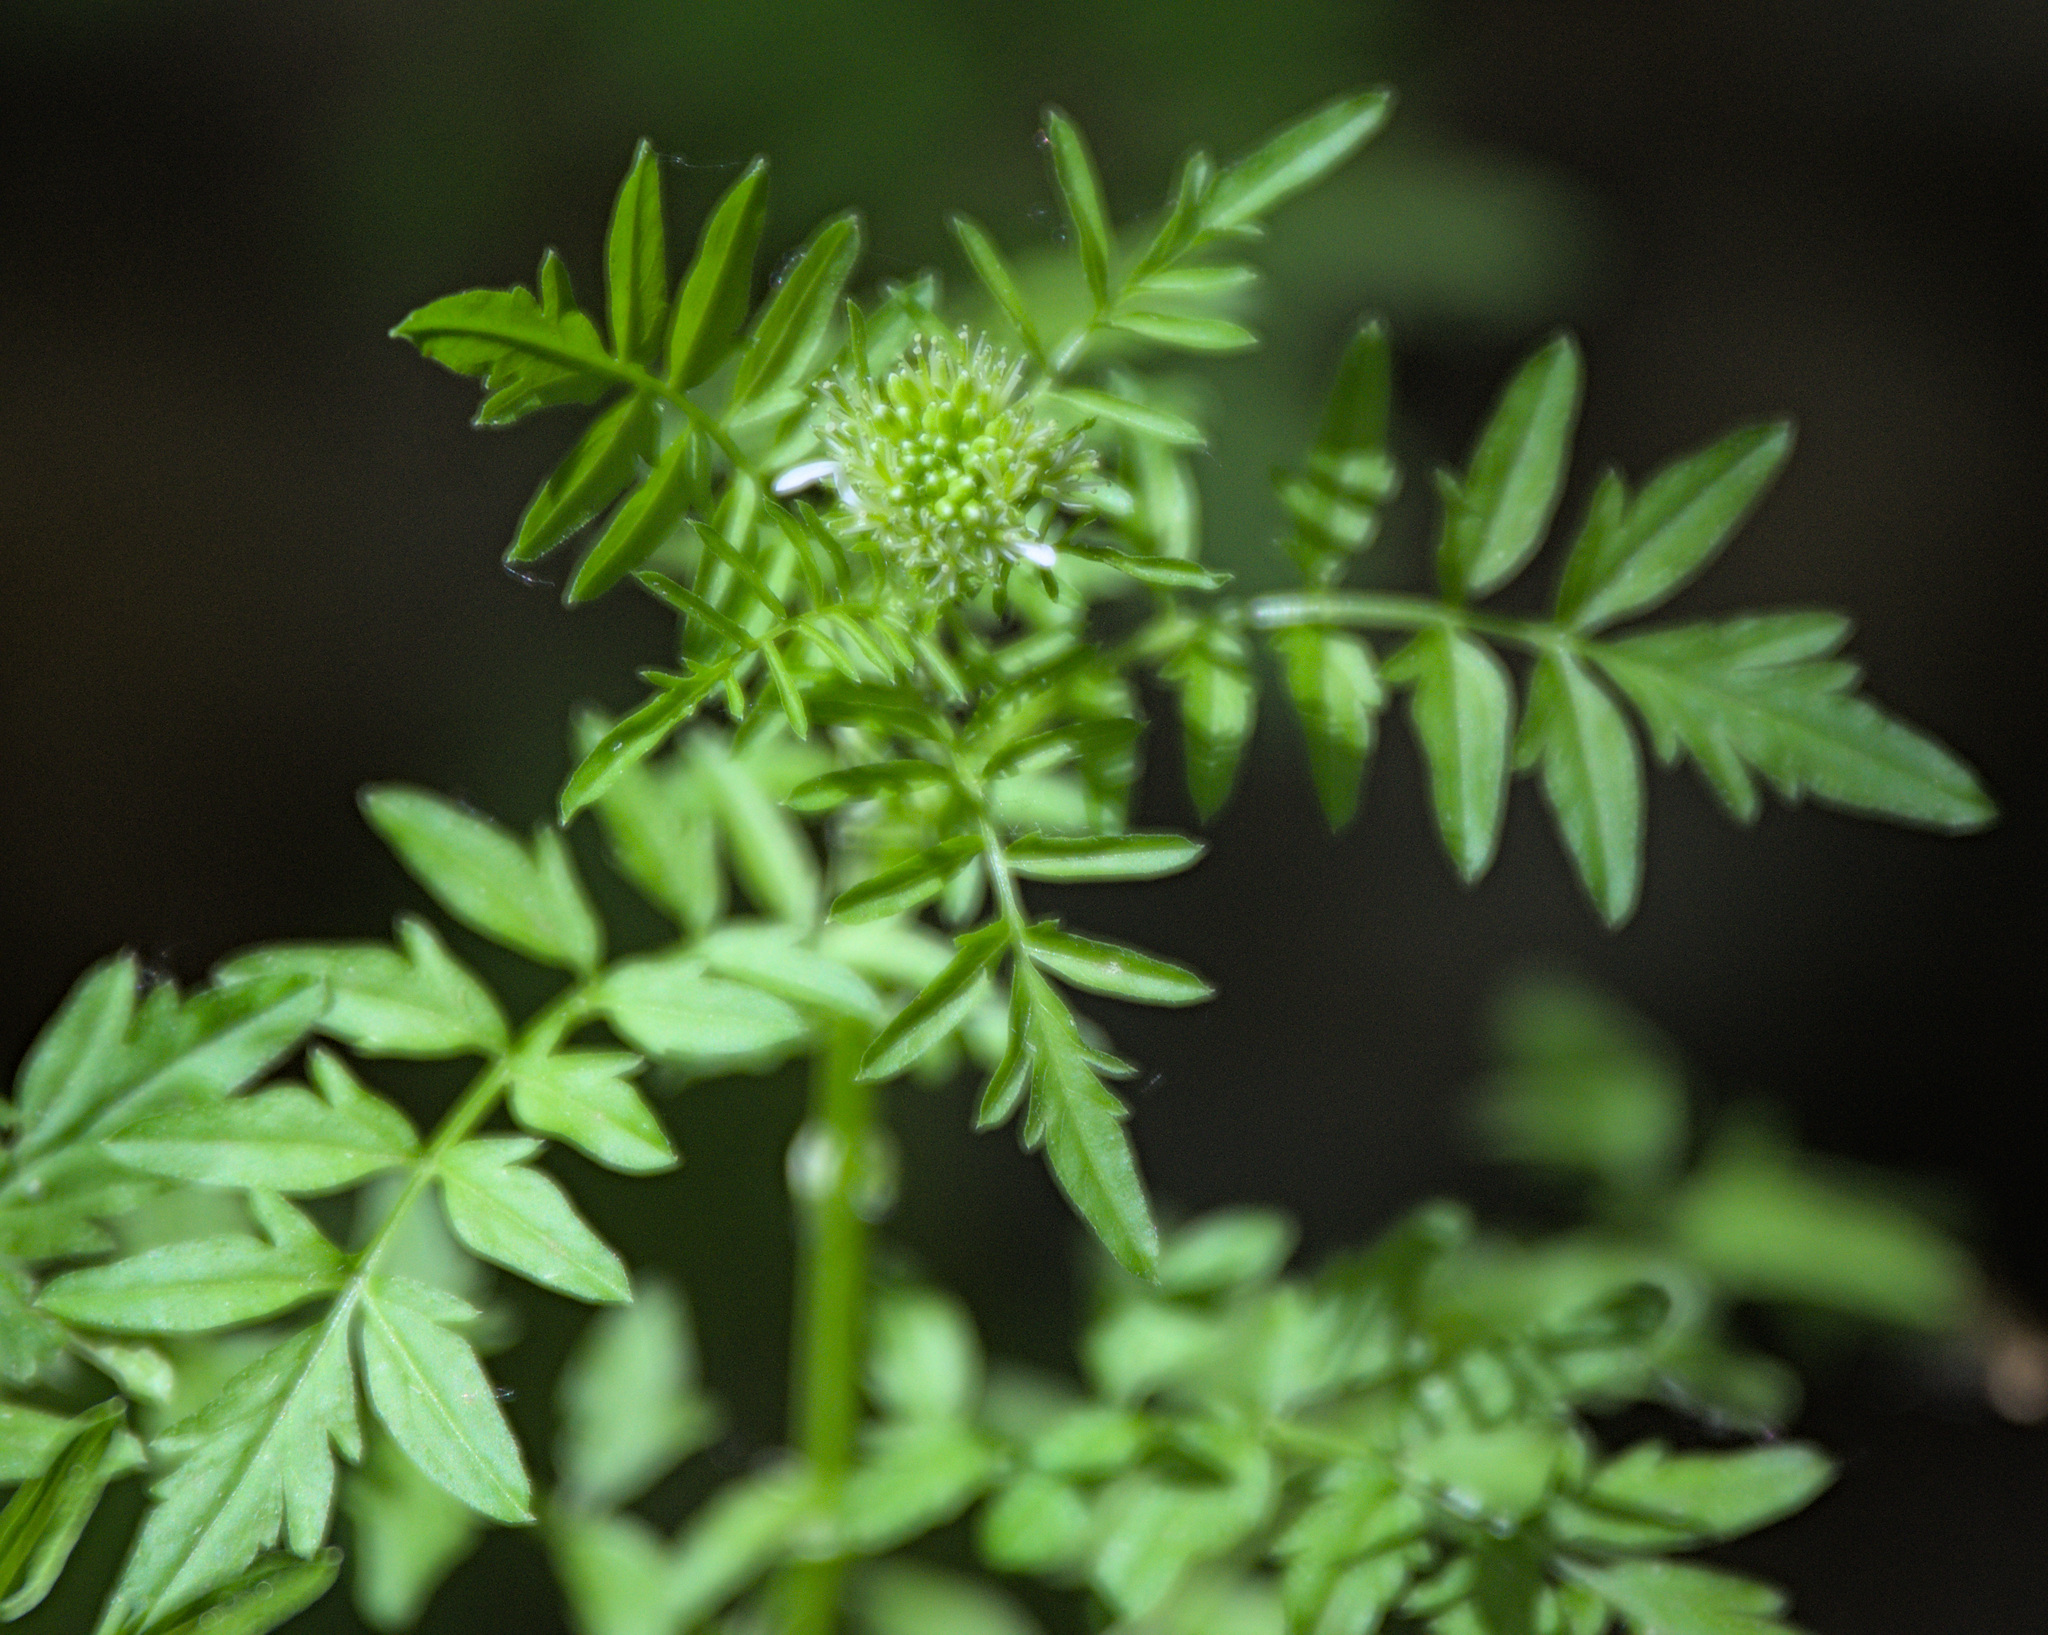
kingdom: Plantae
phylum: Tracheophyta
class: Magnoliopsida
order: Brassicales
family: Brassicaceae
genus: Cardamine
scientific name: Cardamine impatiens
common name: Narrow-leaved bitter-cress
